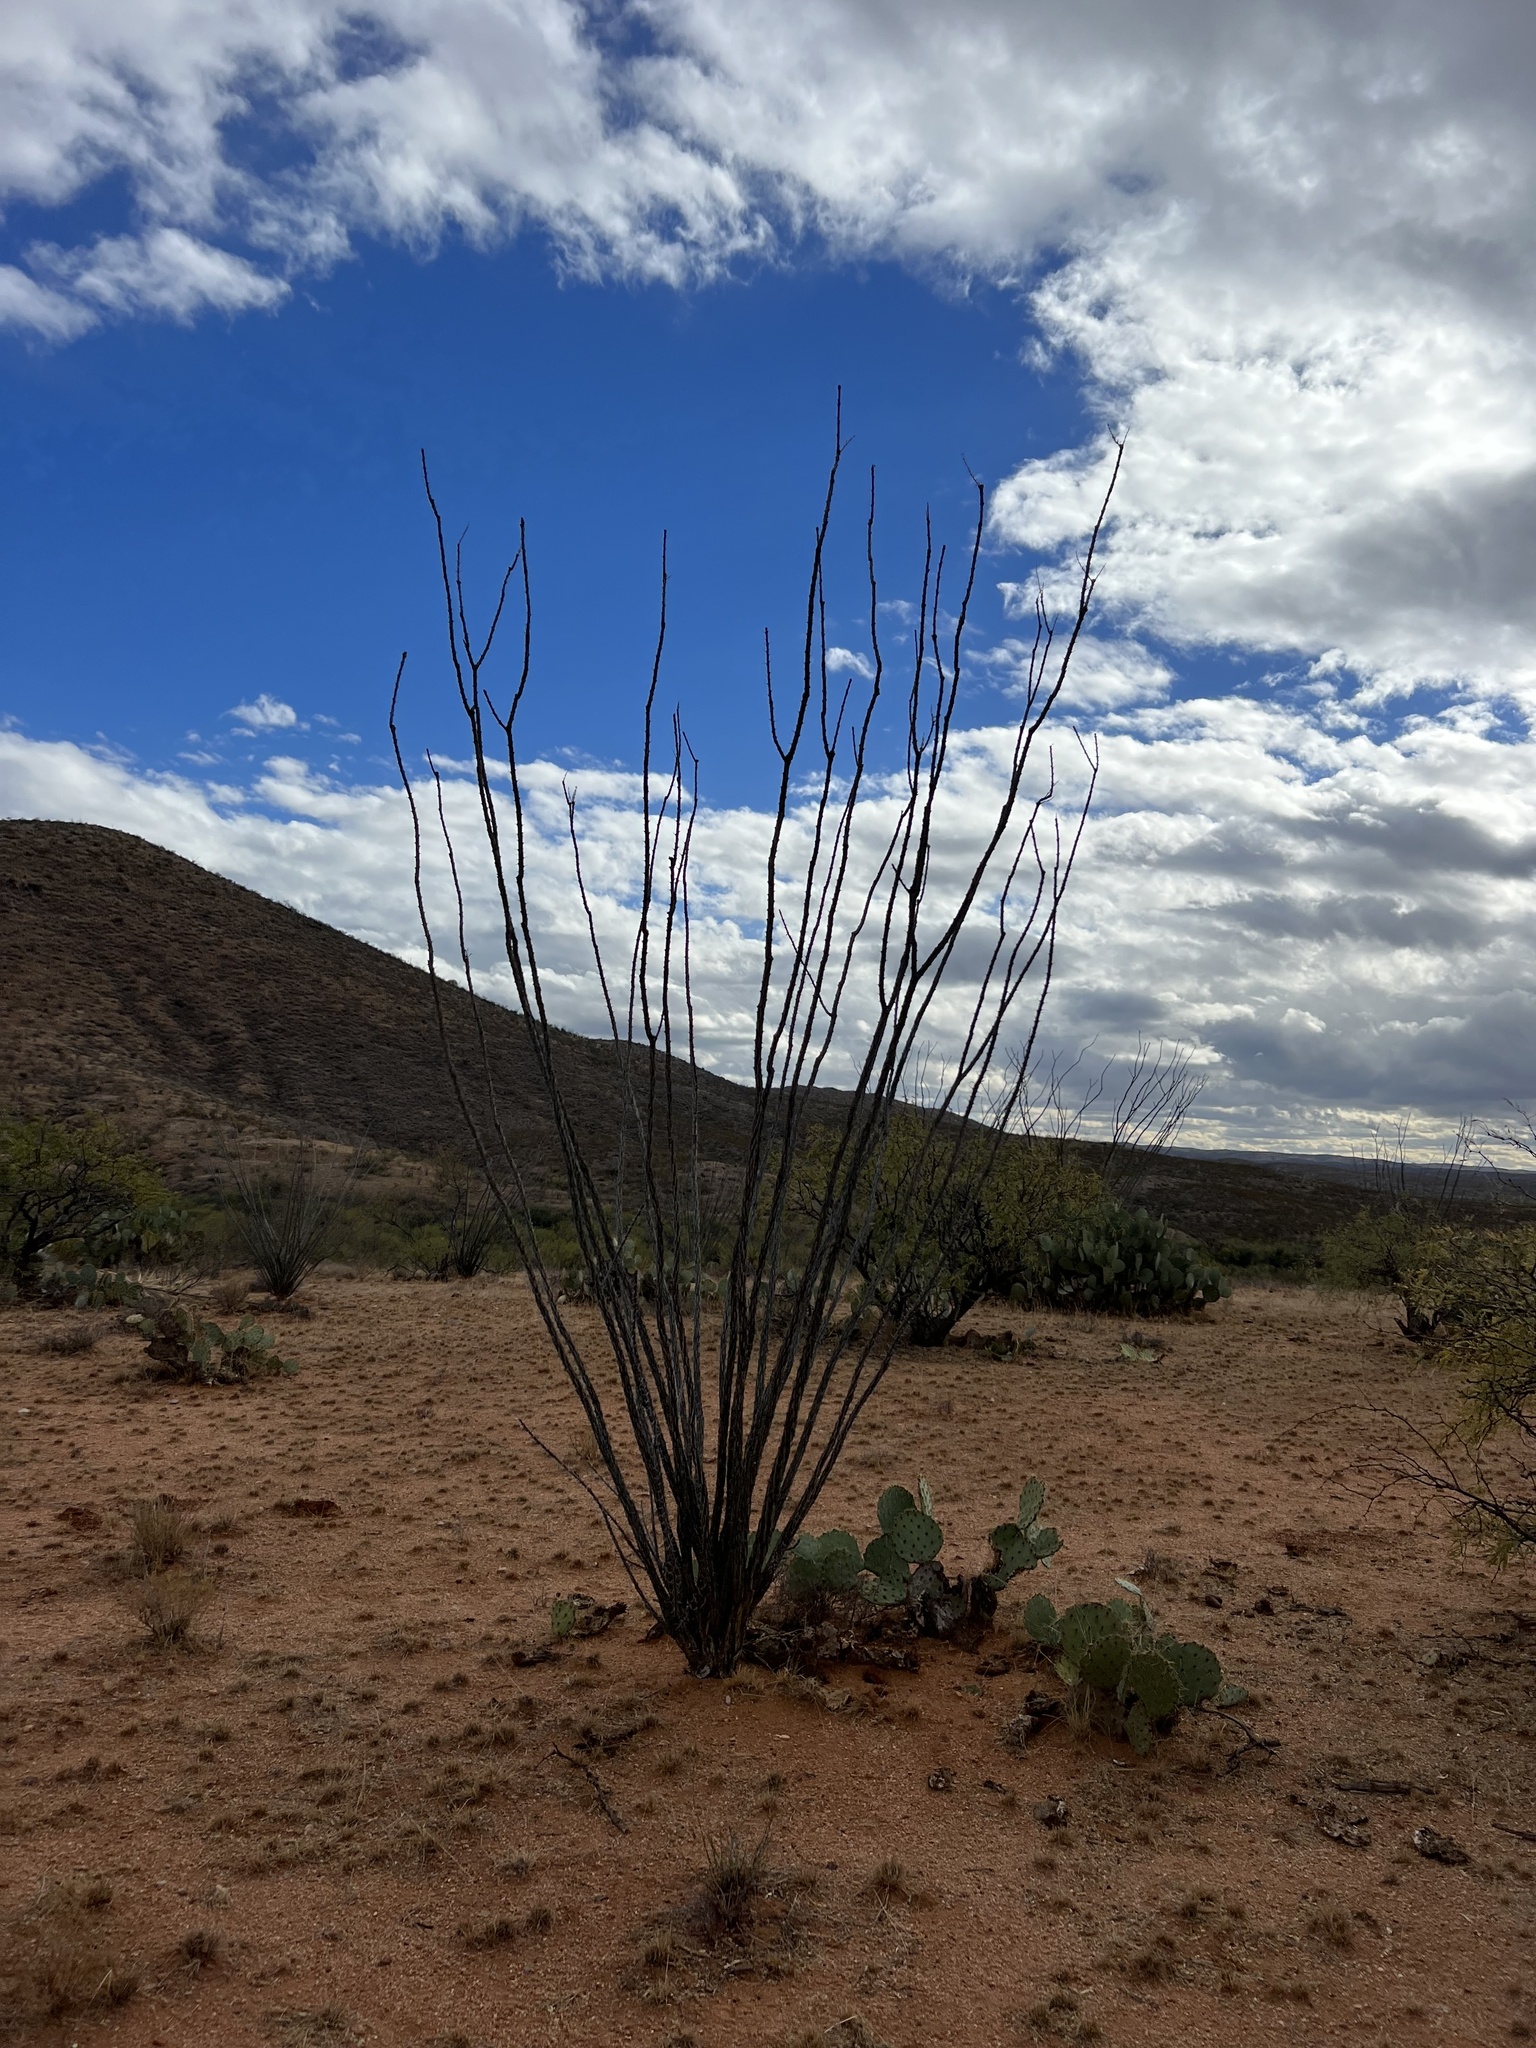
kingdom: Plantae
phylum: Tracheophyta
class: Magnoliopsida
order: Ericales
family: Fouquieriaceae
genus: Fouquieria
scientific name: Fouquieria splendens
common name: Vine-cactus
